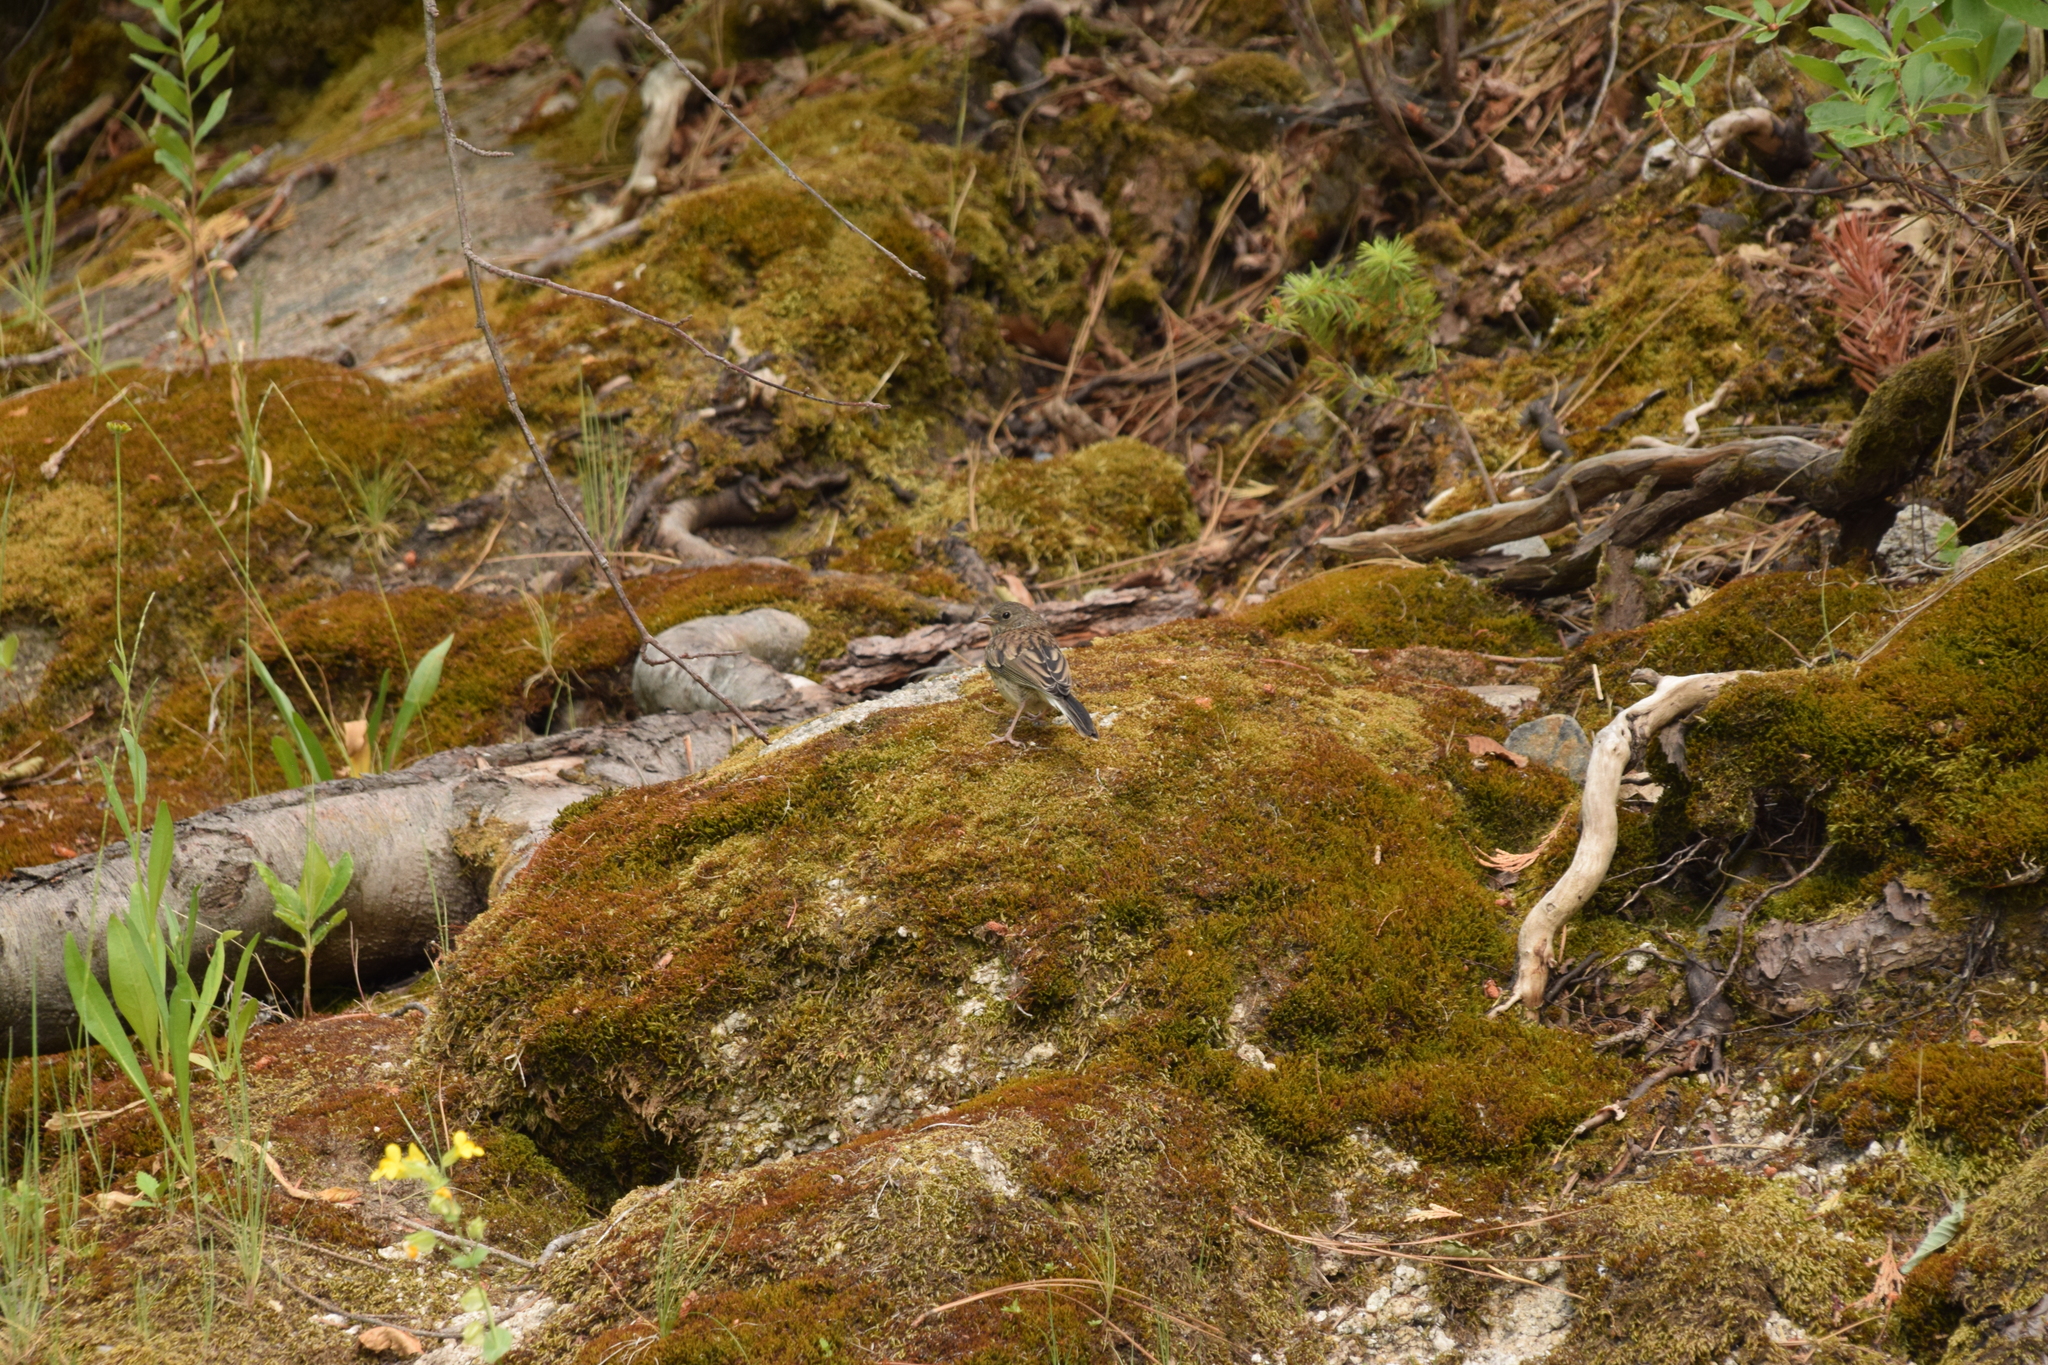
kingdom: Animalia
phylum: Chordata
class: Aves
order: Passeriformes
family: Passerellidae
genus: Junco
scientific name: Junco hyemalis
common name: Dark-eyed junco
